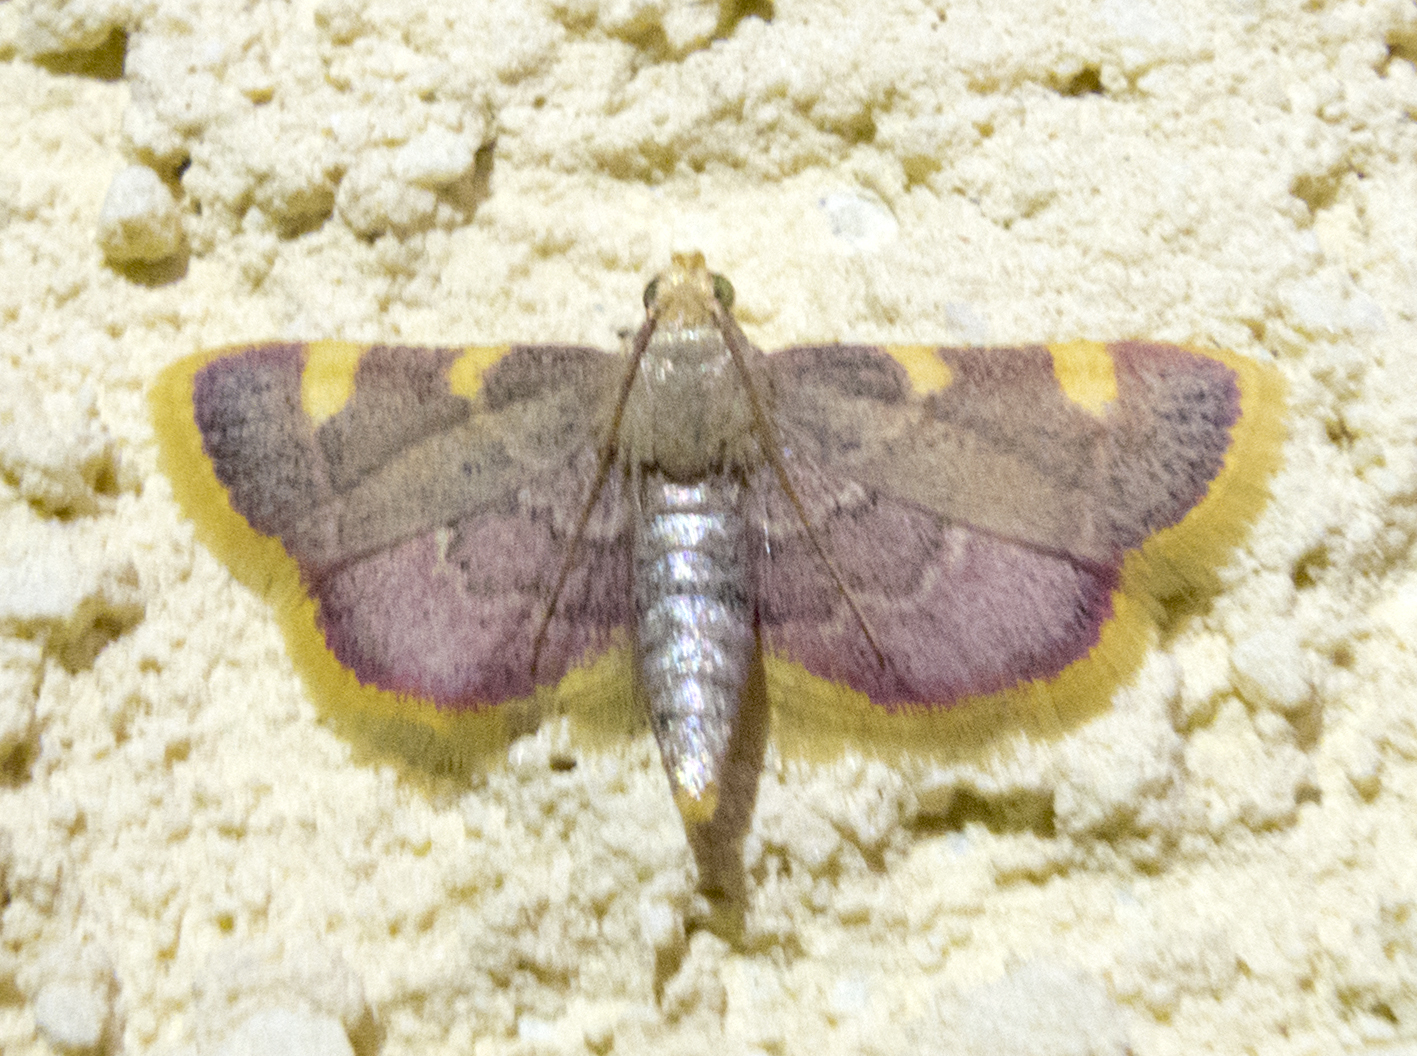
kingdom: Animalia
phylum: Arthropoda
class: Insecta
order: Lepidoptera
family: Pyralidae
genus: Hypsopygia
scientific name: Hypsopygia costalis
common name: Gold triangle
